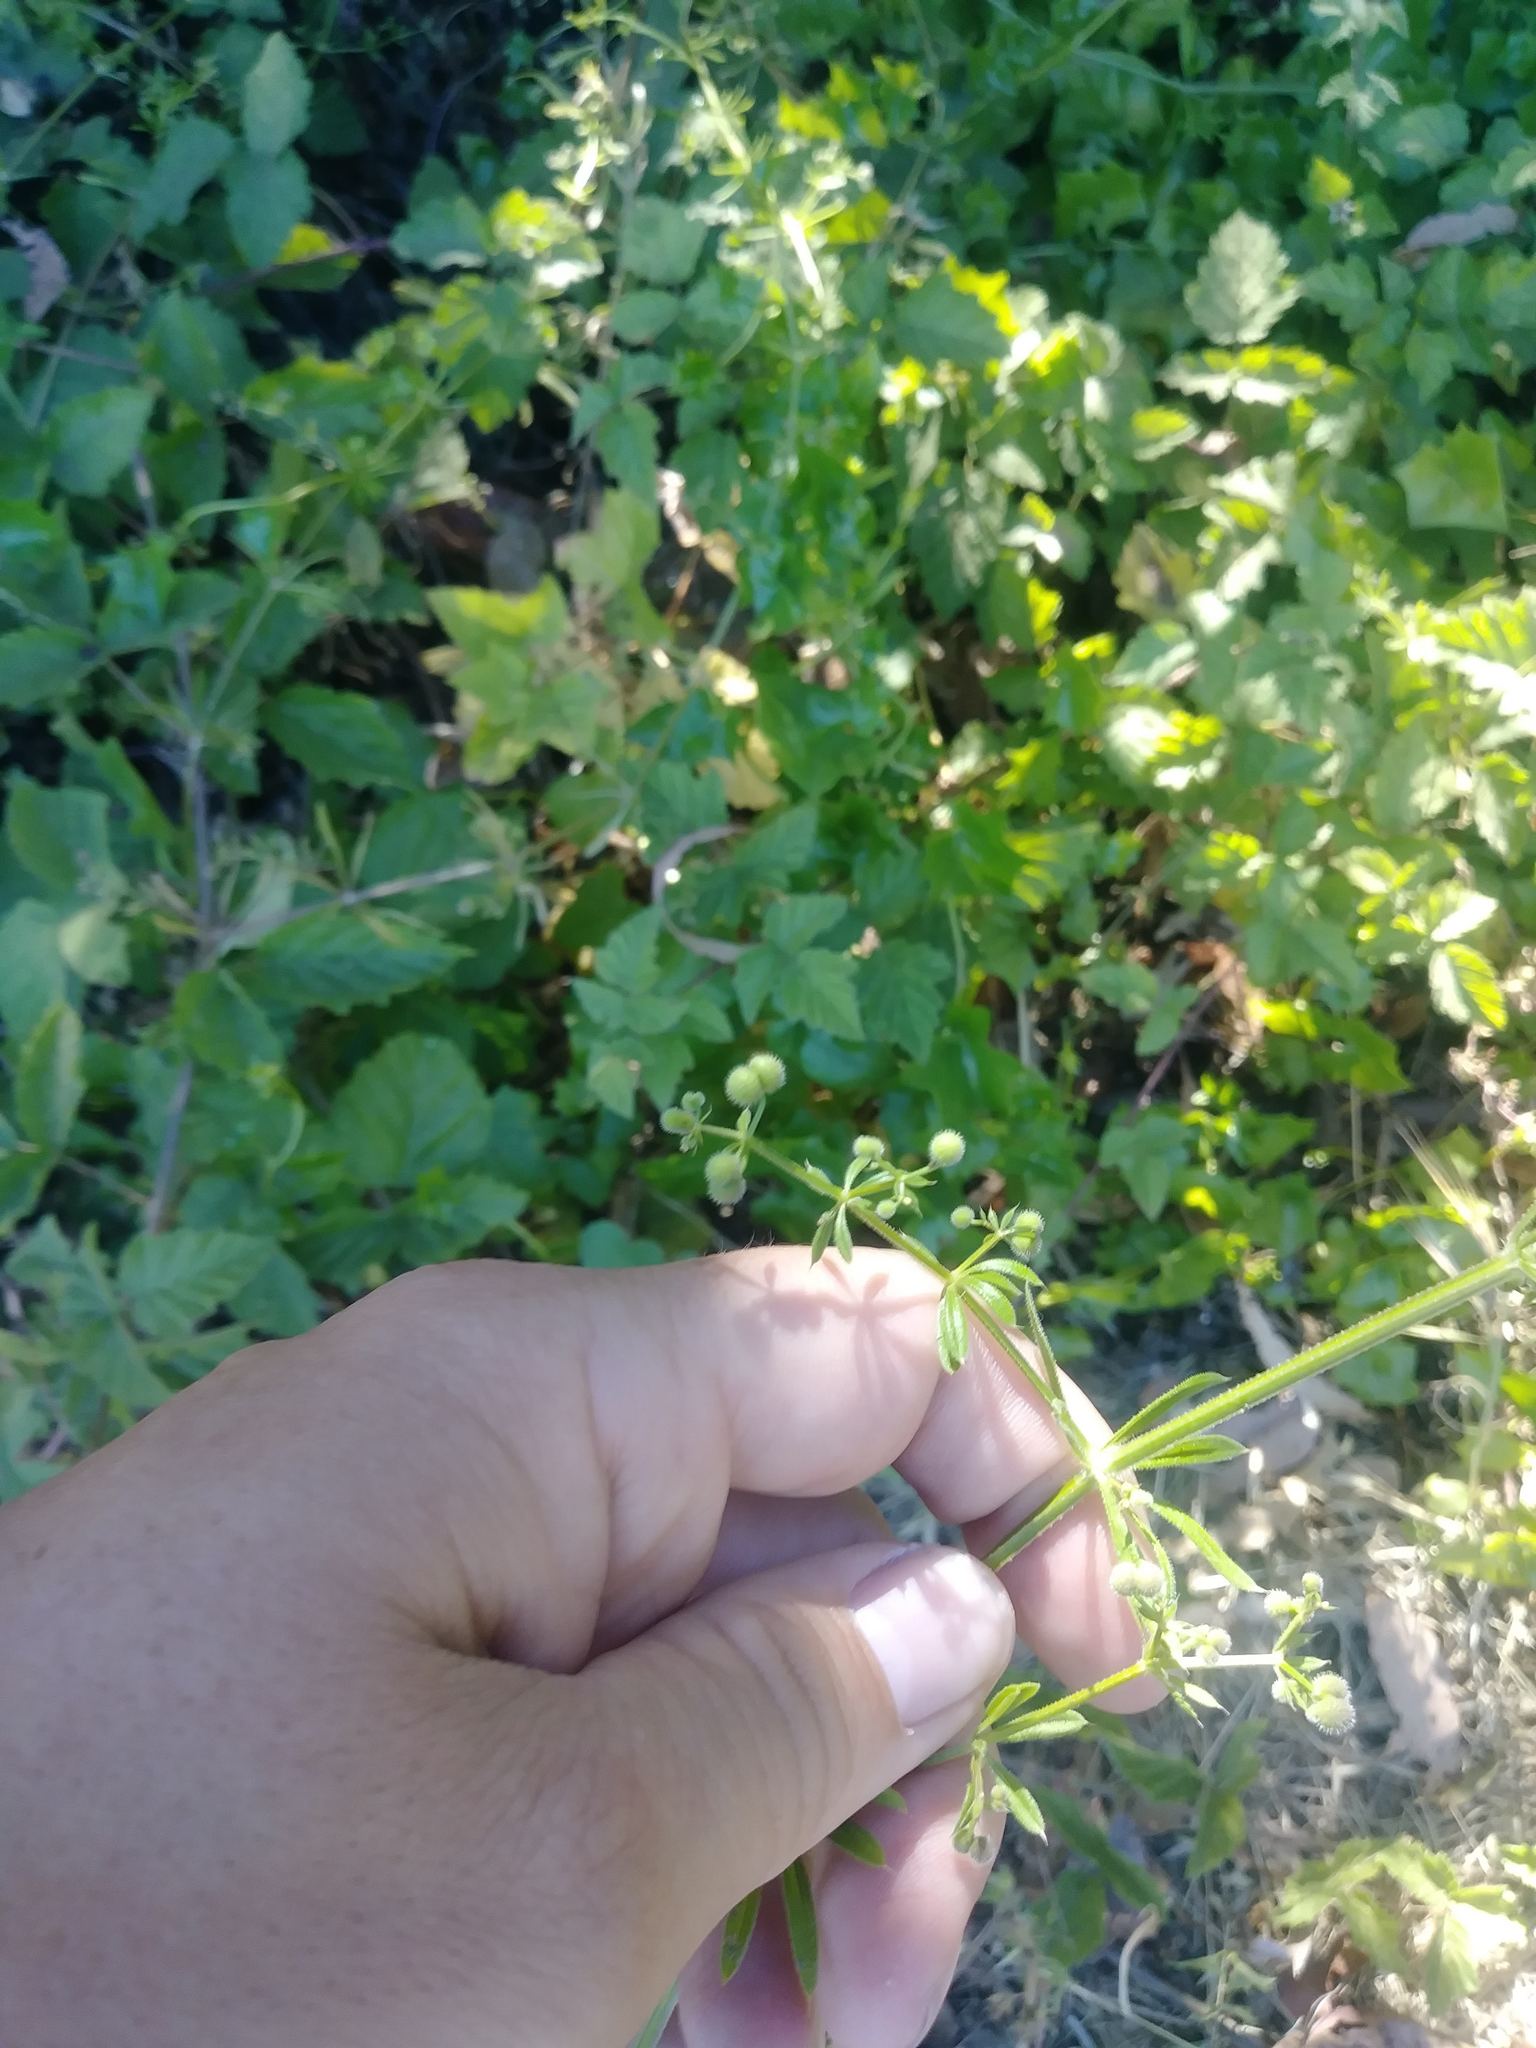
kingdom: Plantae
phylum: Tracheophyta
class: Magnoliopsida
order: Gentianales
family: Rubiaceae
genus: Galium
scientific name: Galium aparine
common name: Cleavers
